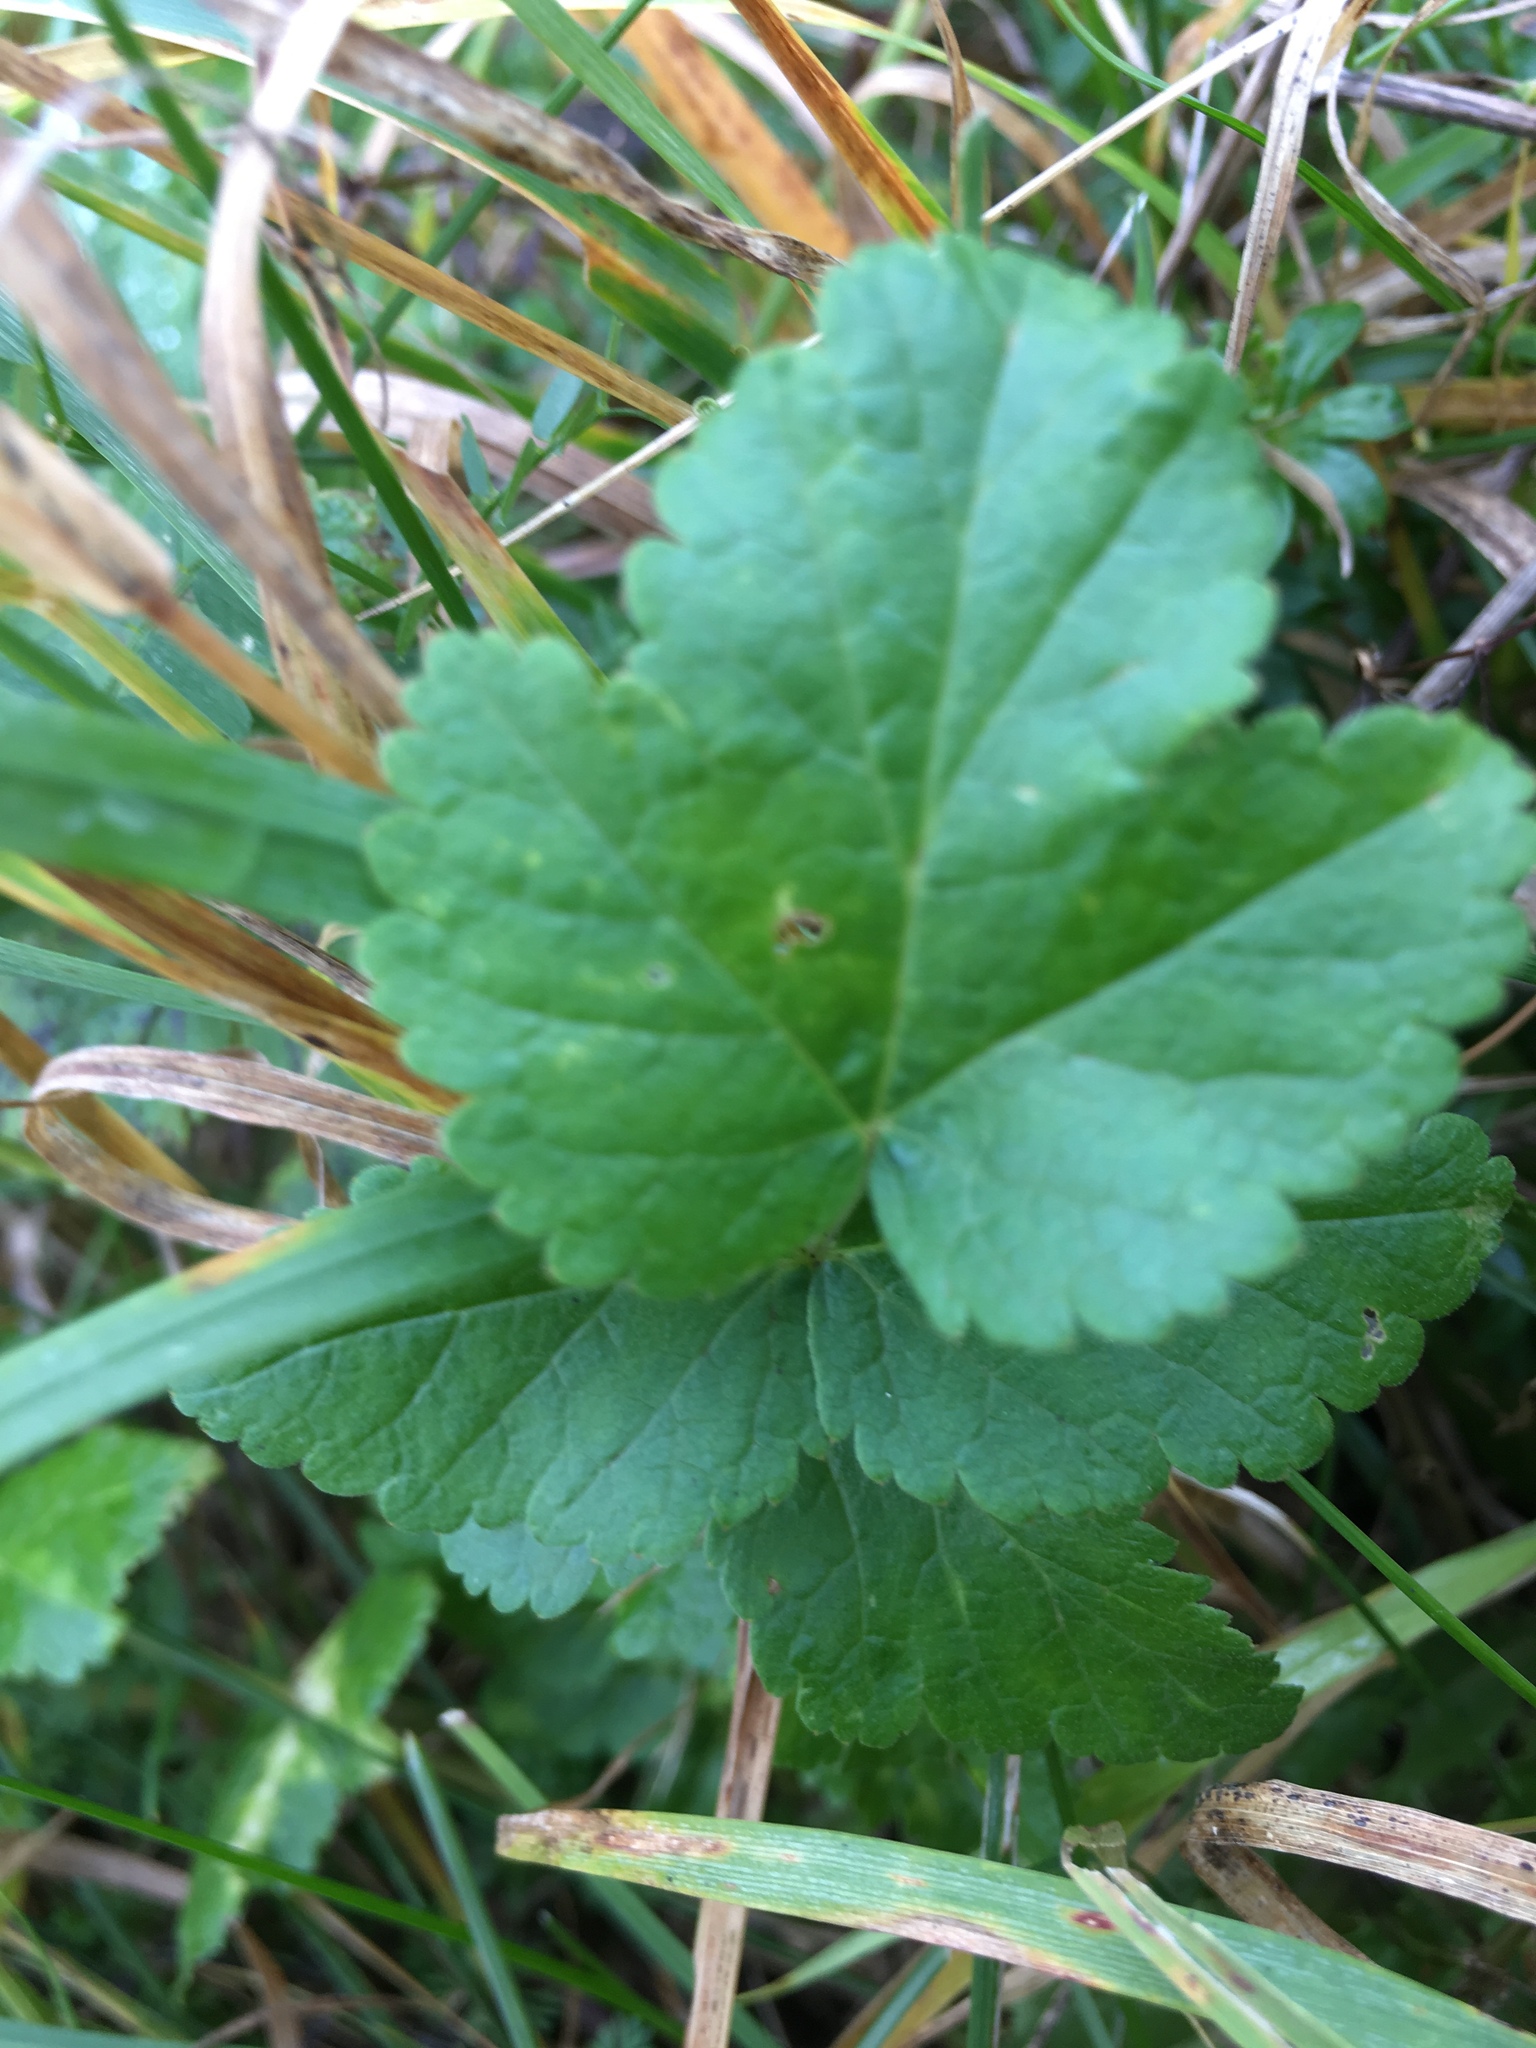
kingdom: Plantae
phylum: Tracheophyta
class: Magnoliopsida
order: Rosales
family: Rosaceae
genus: Geum
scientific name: Geum urbanum
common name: Wood avens
